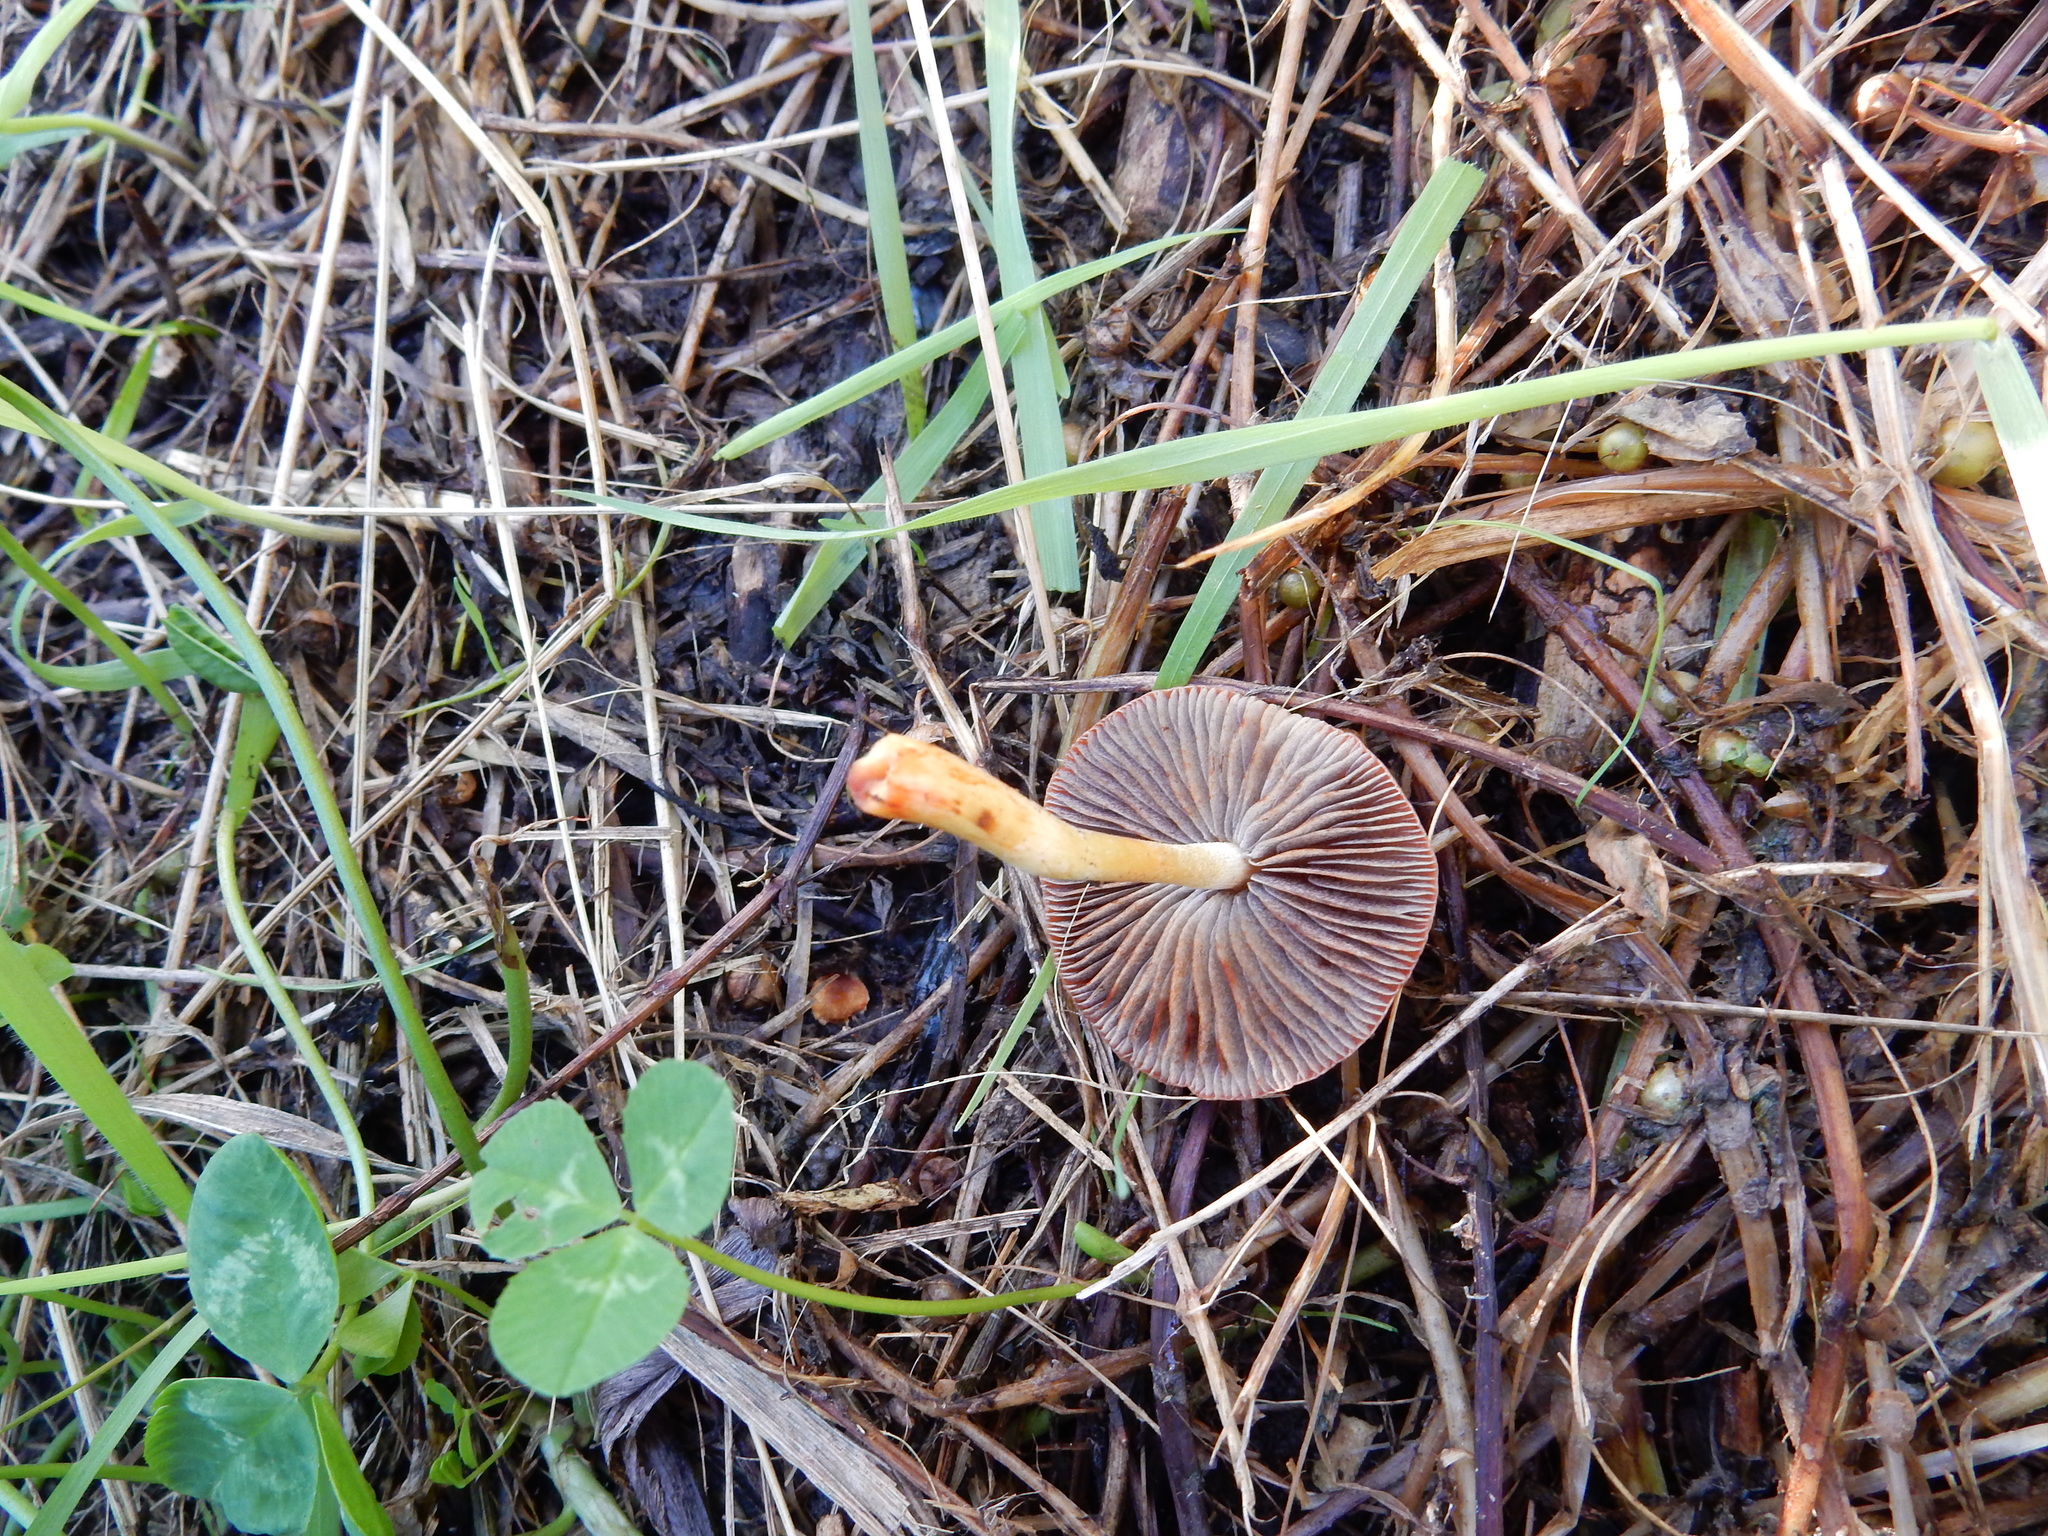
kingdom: Fungi
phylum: Basidiomycota
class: Agaricomycetes
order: Agaricales
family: Strophariaceae
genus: Leratiomyces
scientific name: Leratiomyces ceres
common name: Redlead roundhead
